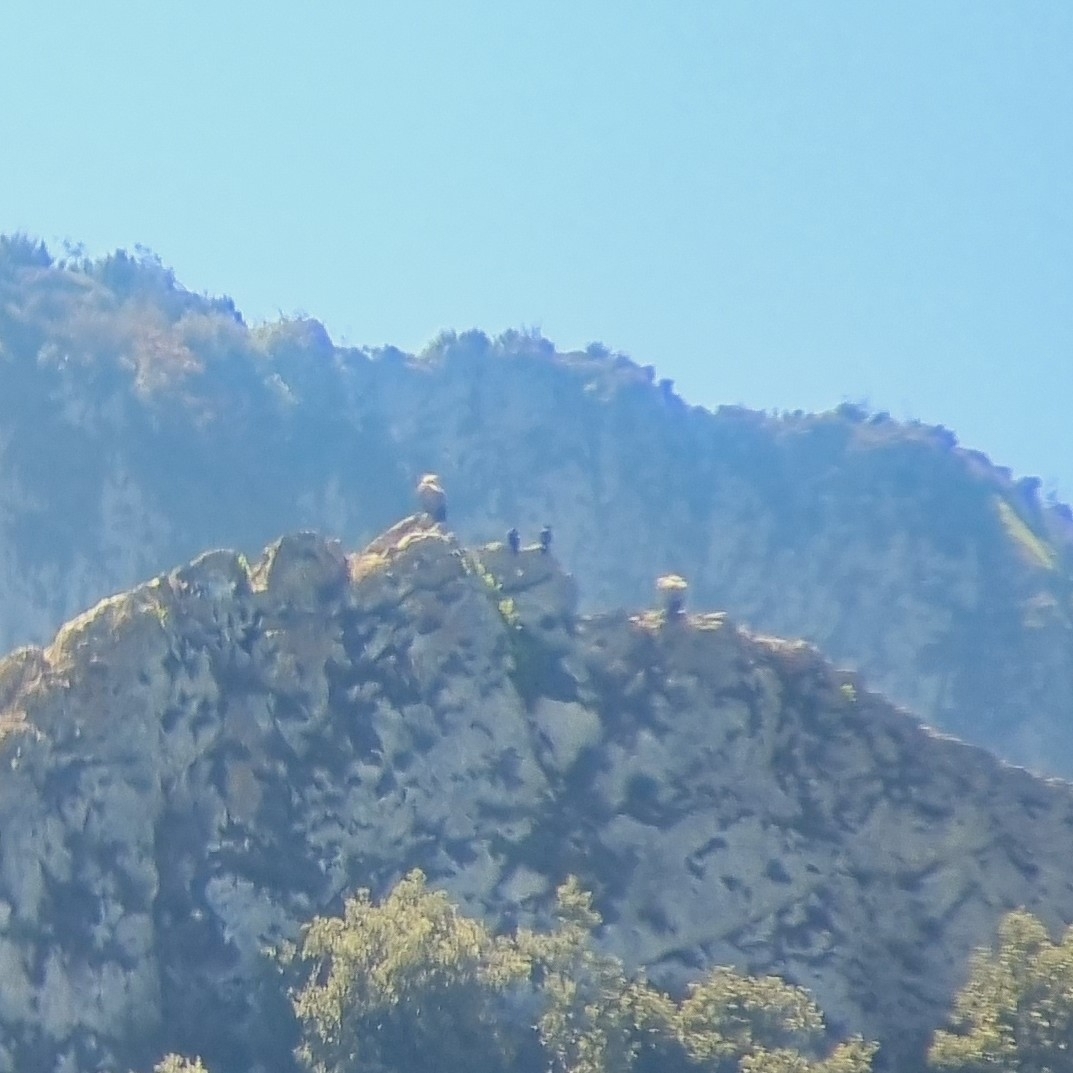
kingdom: Animalia
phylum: Chordata
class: Aves
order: Accipitriformes
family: Accipitridae
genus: Neophron
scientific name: Neophron percnopterus
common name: Egyptian vulture
